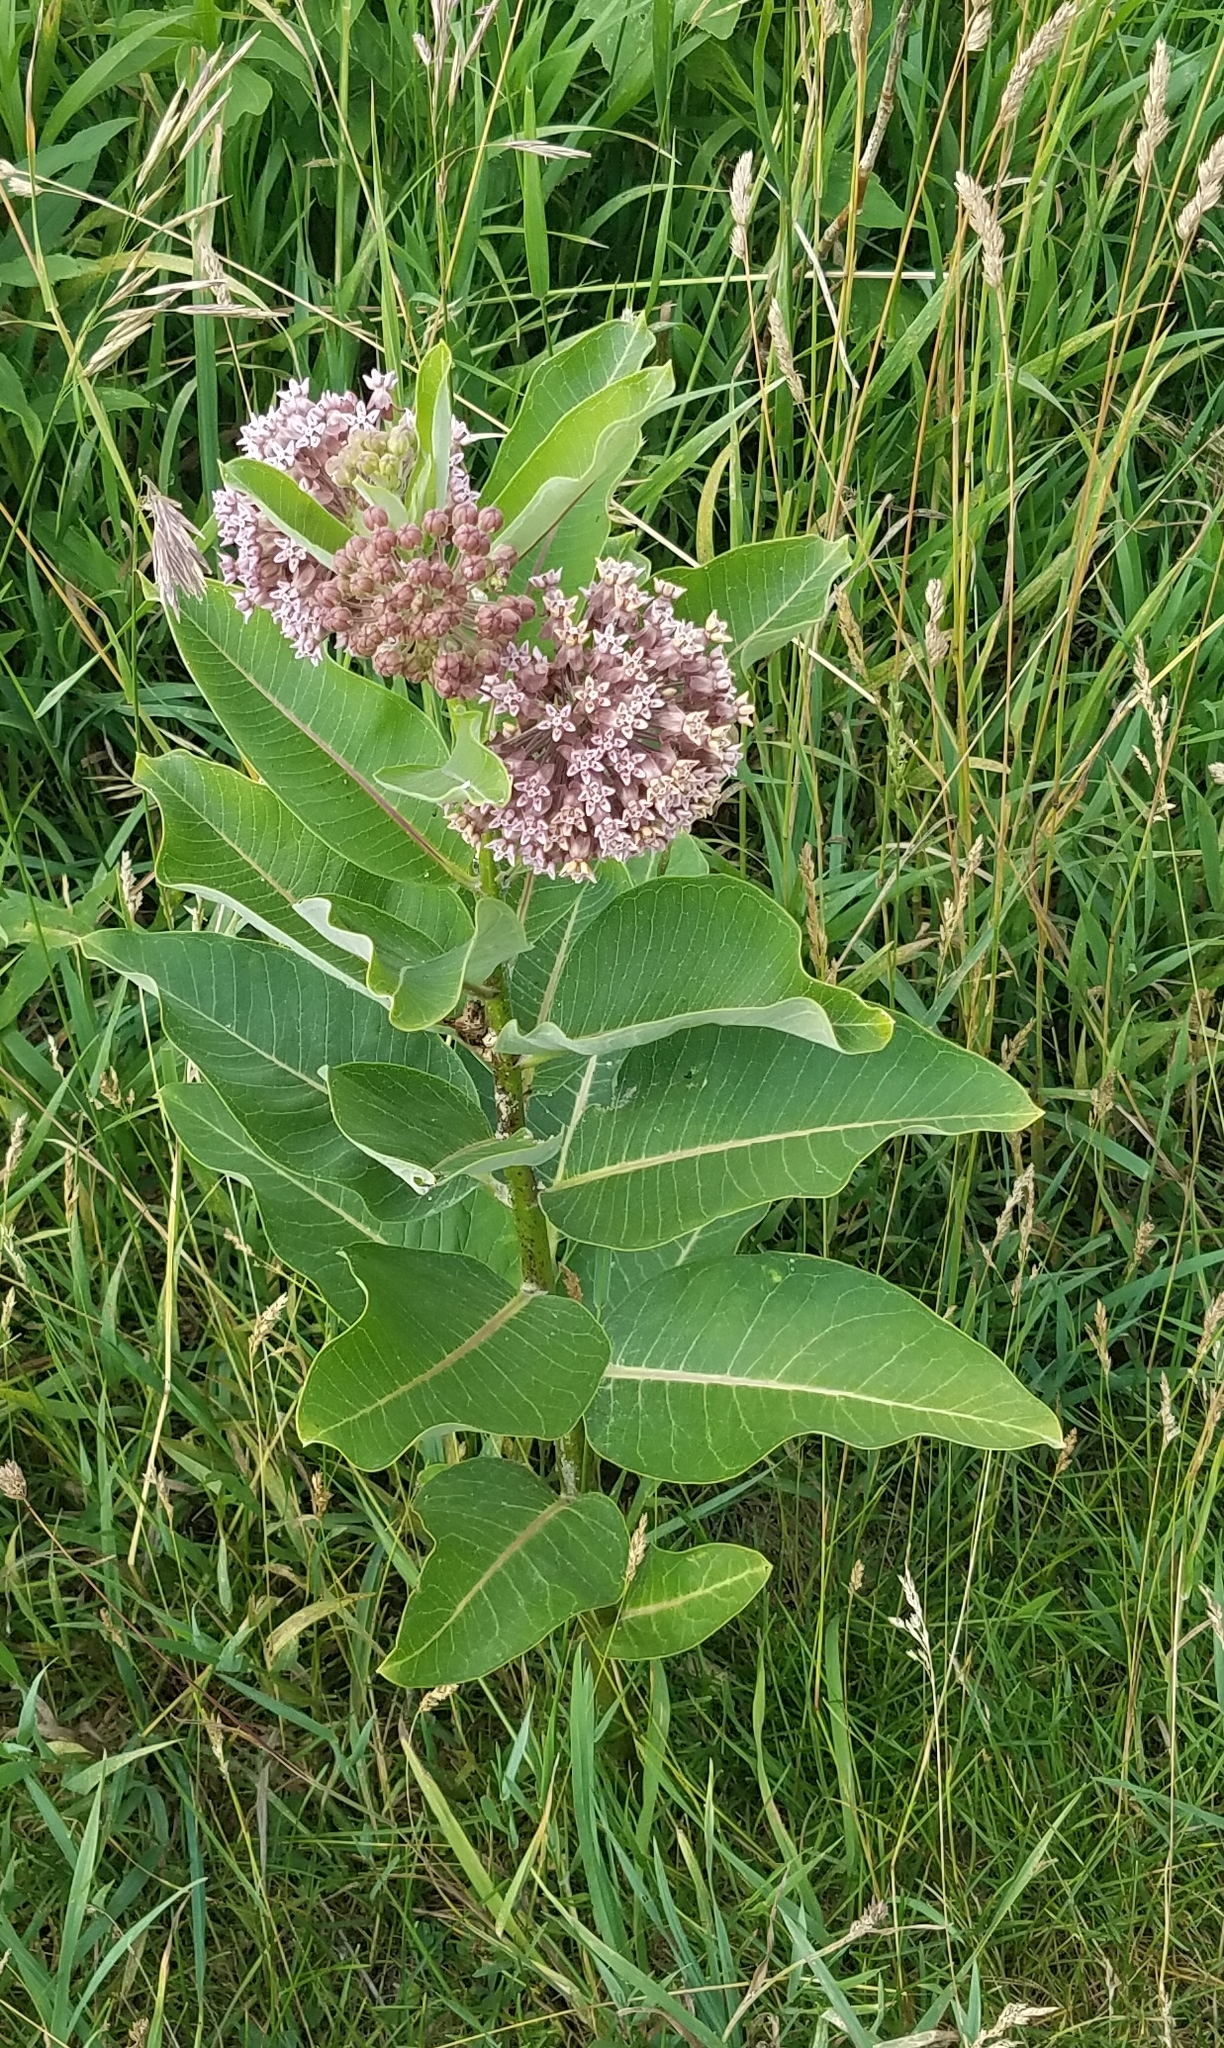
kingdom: Plantae
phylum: Tracheophyta
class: Magnoliopsida
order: Gentianales
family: Apocynaceae
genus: Asclepias
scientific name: Asclepias syriaca
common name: Common milkweed
